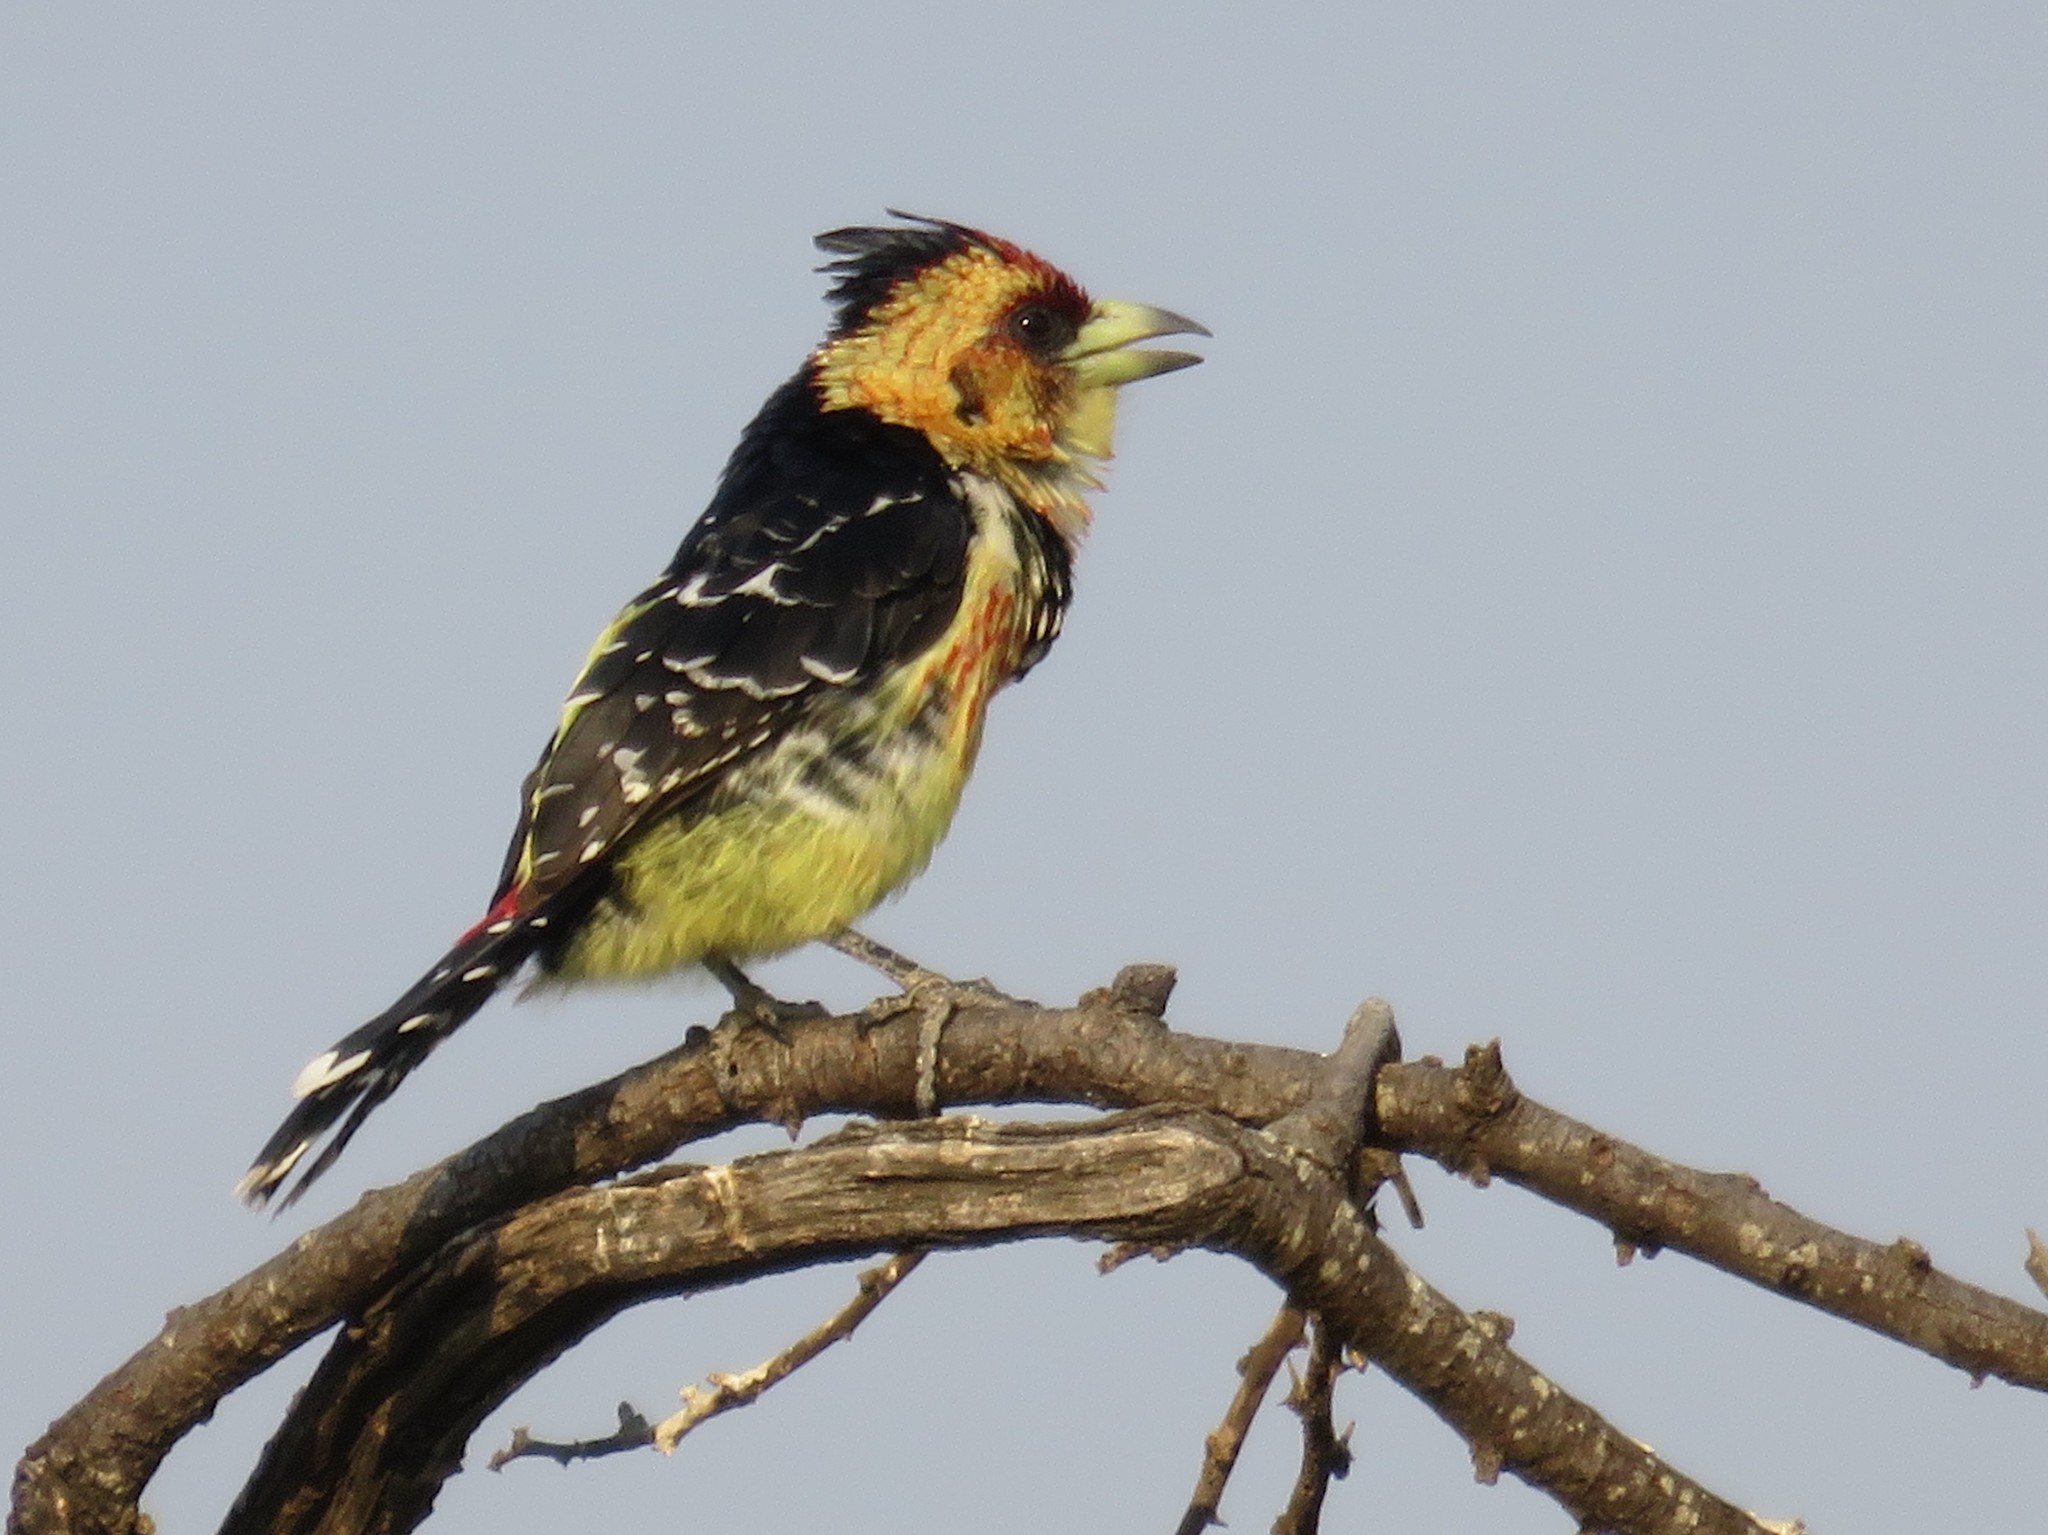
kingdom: Animalia
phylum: Chordata
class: Aves
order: Piciformes
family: Lybiidae
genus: Trachyphonus
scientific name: Trachyphonus vaillantii
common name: Crested barbet
